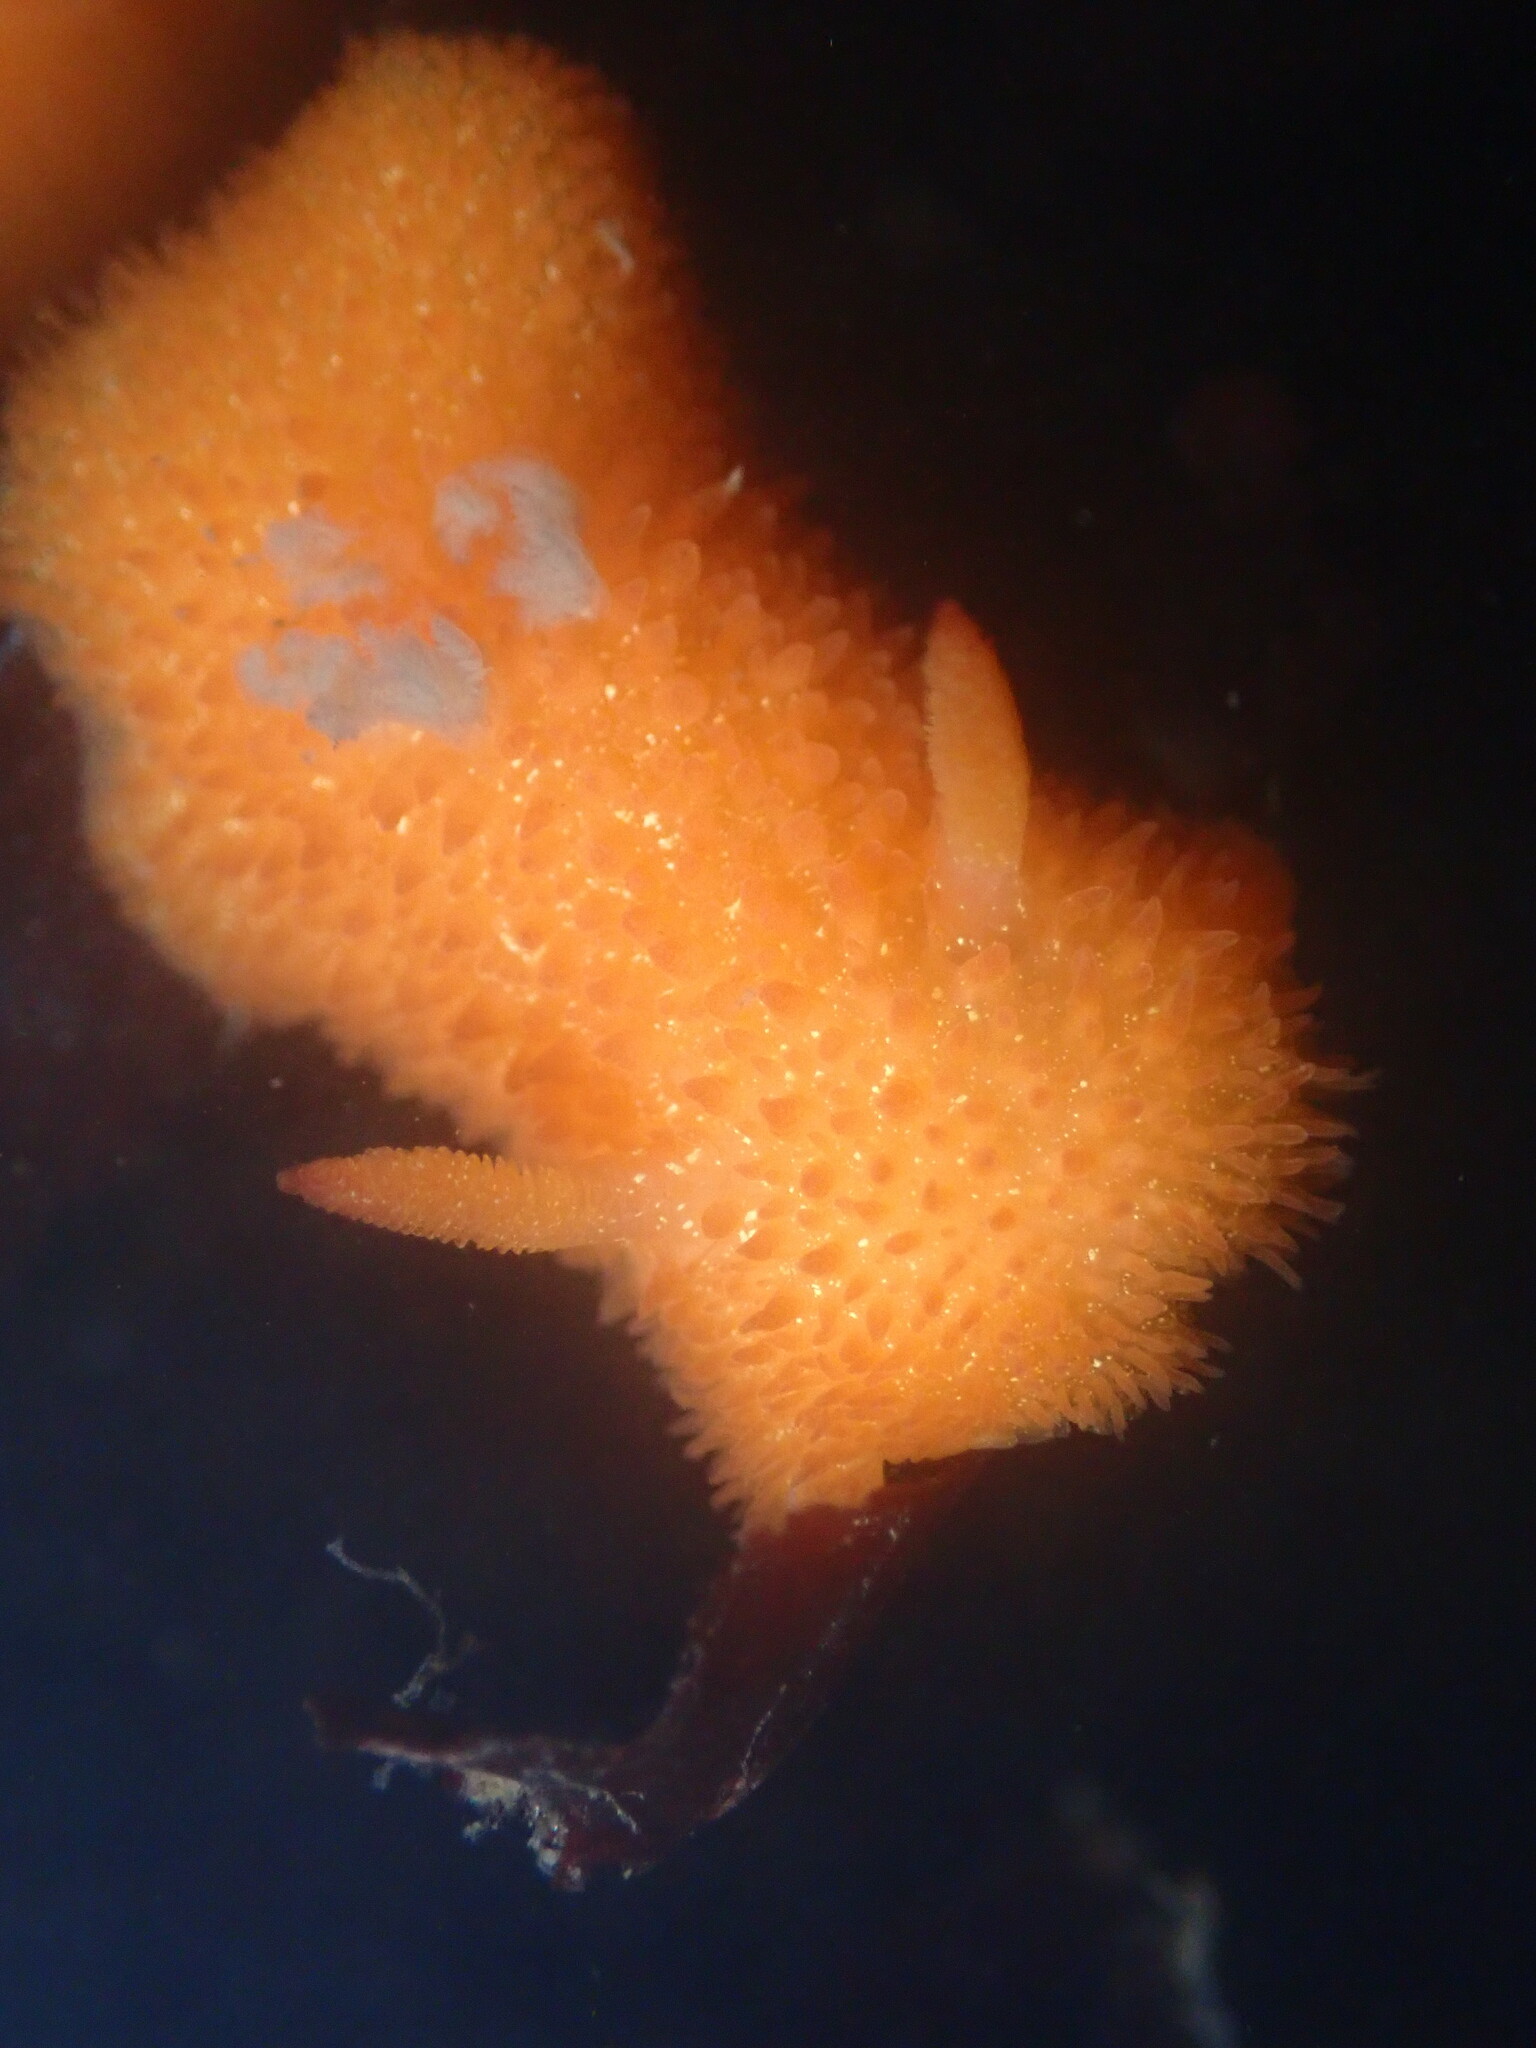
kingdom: Animalia
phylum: Mollusca
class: Gastropoda
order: Nudibranchia
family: Onchidorididae
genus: Acanthodoris
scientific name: Acanthodoris lutea
